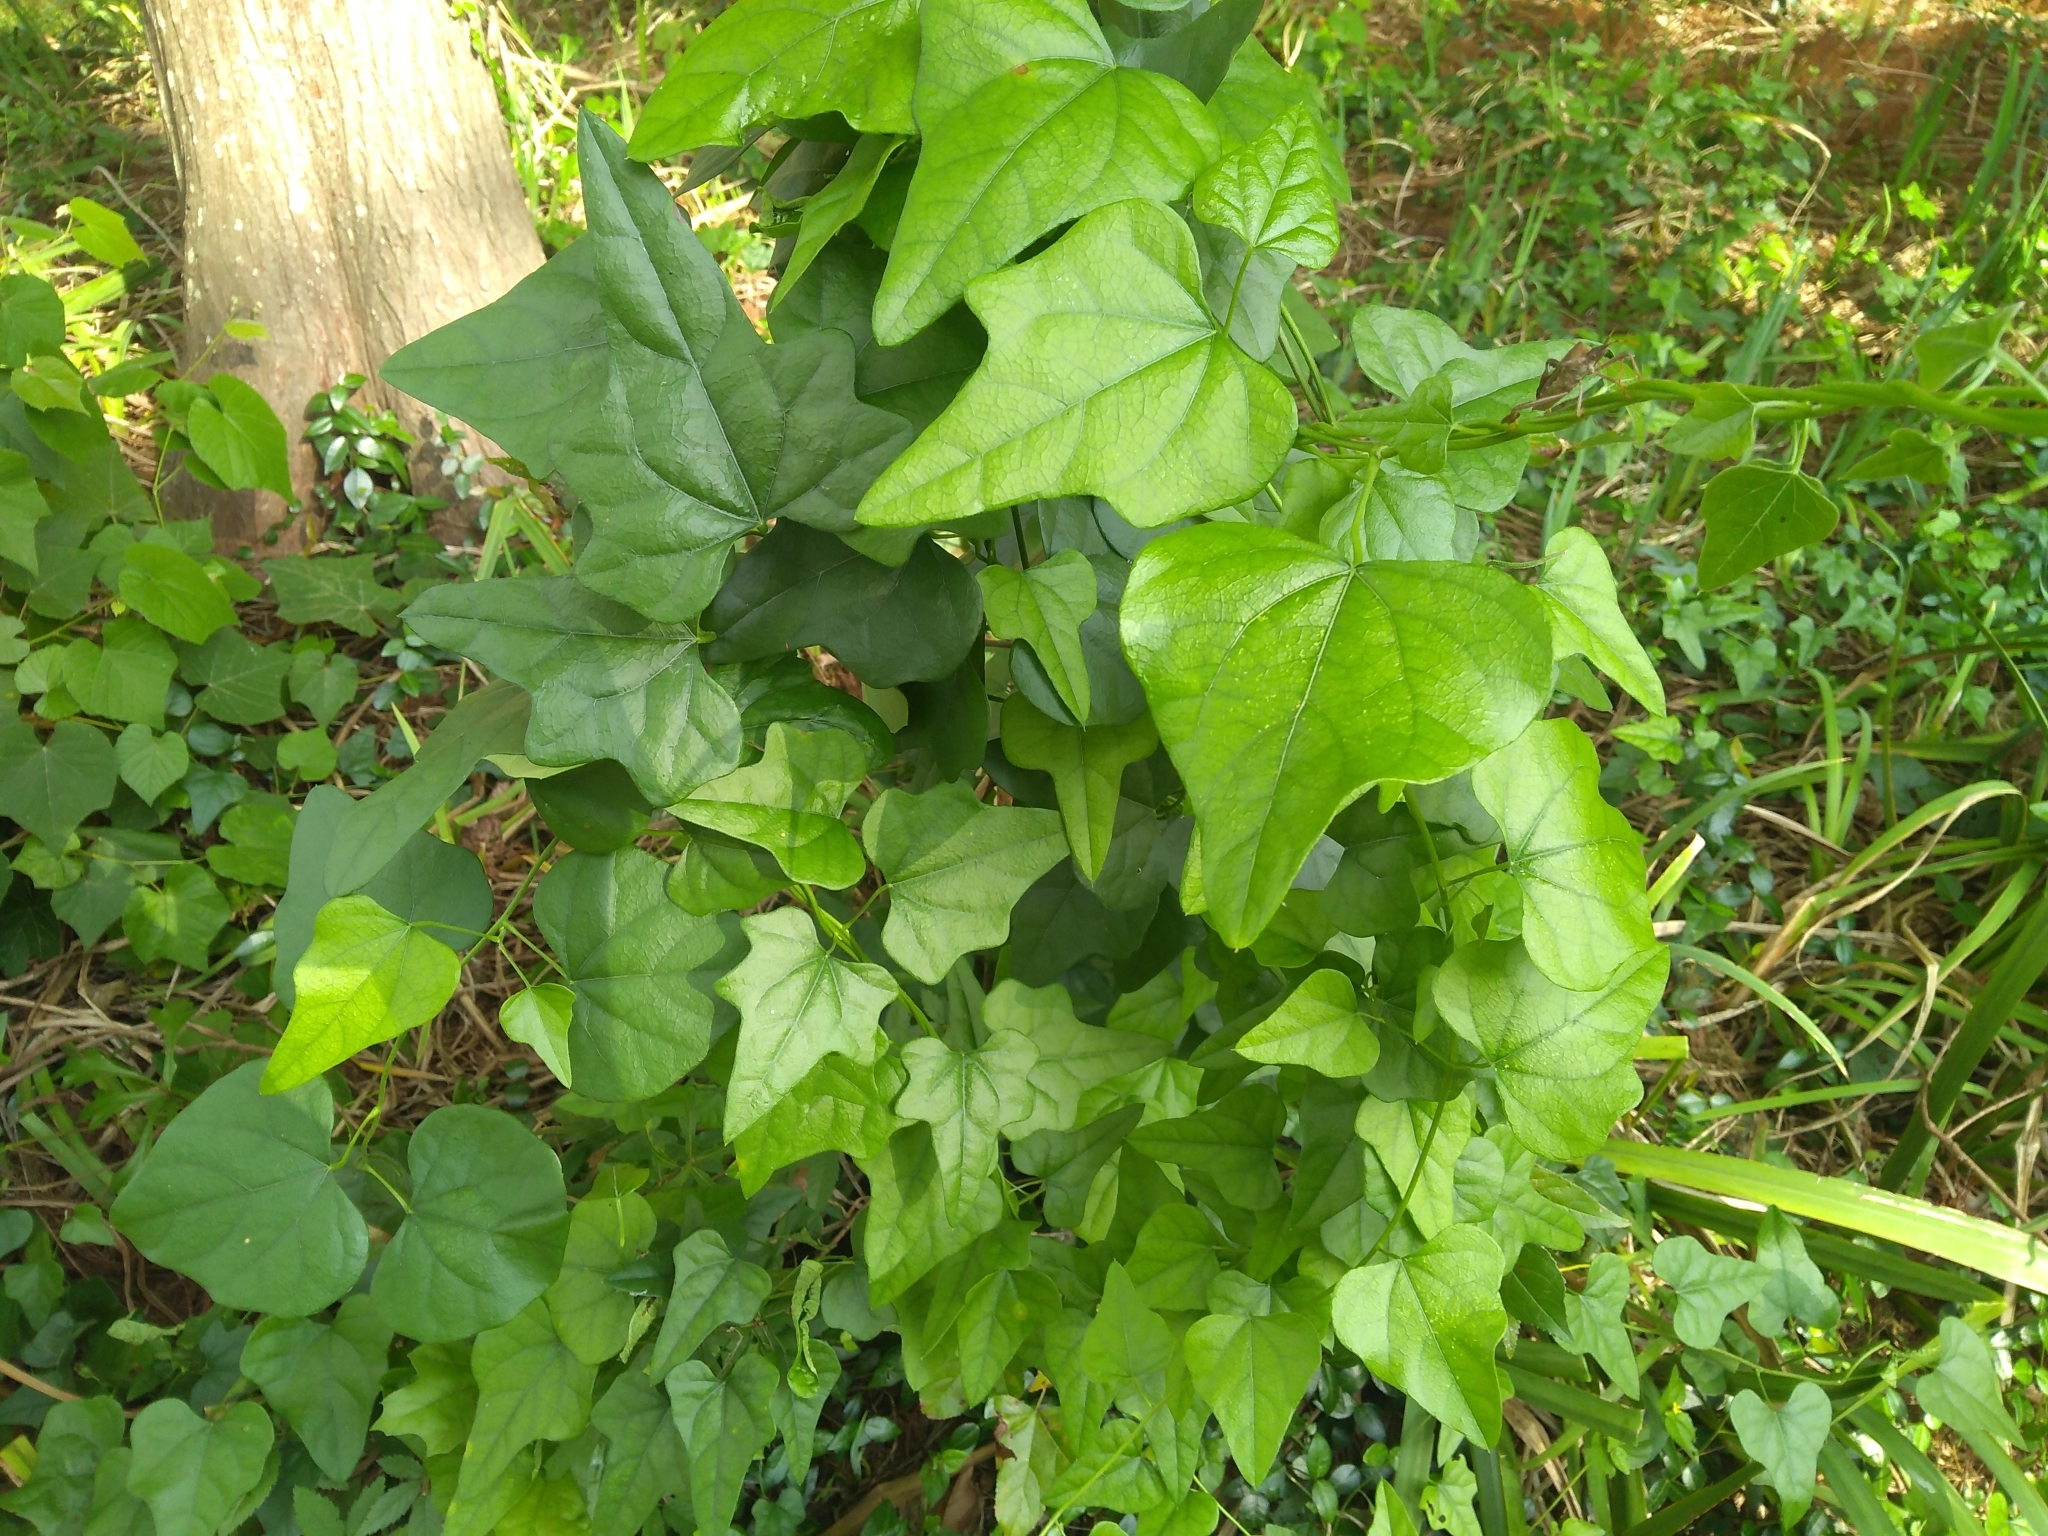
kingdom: Plantae
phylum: Tracheophyta
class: Magnoliopsida
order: Ranunculales
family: Menispermaceae
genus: Cocculus
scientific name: Cocculus carolinus
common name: Carolina moonseed
